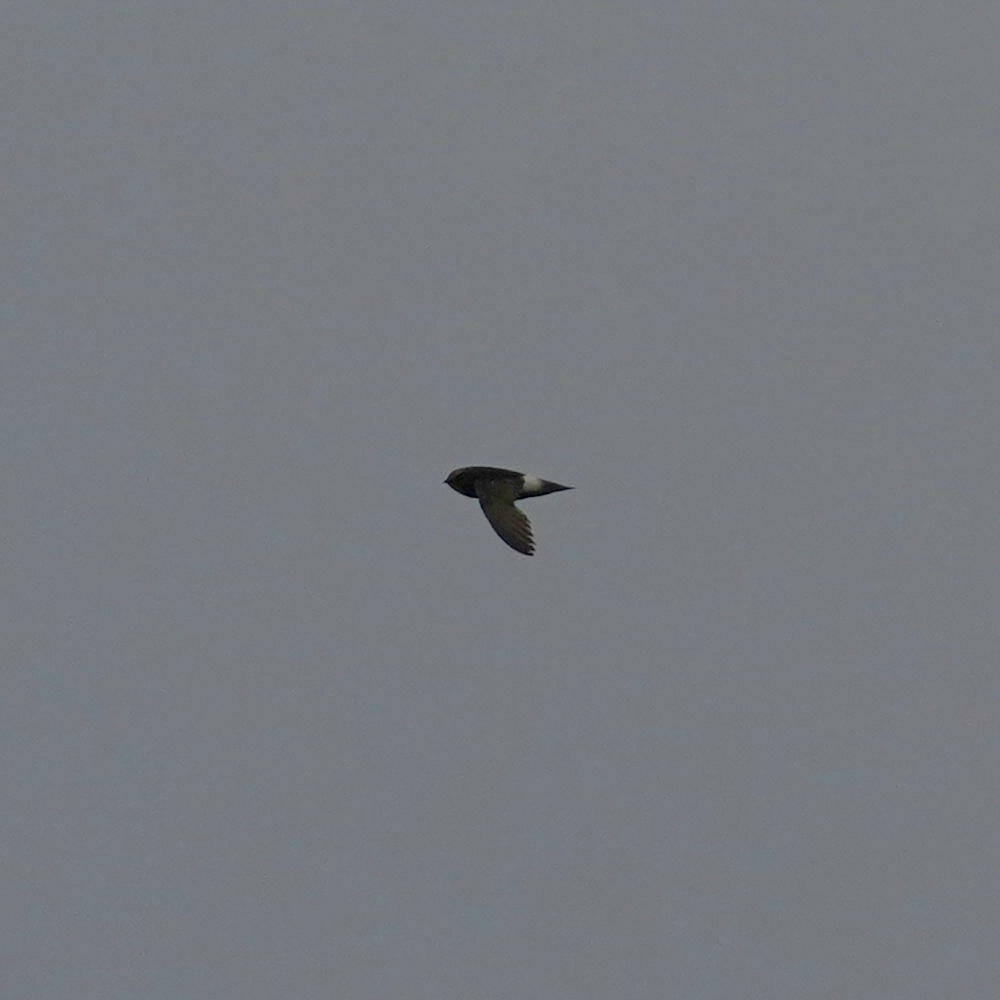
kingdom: Animalia
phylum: Chordata
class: Aves
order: Apodiformes
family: Apodidae
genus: Apus
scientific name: Apus affinis
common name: Little swift
